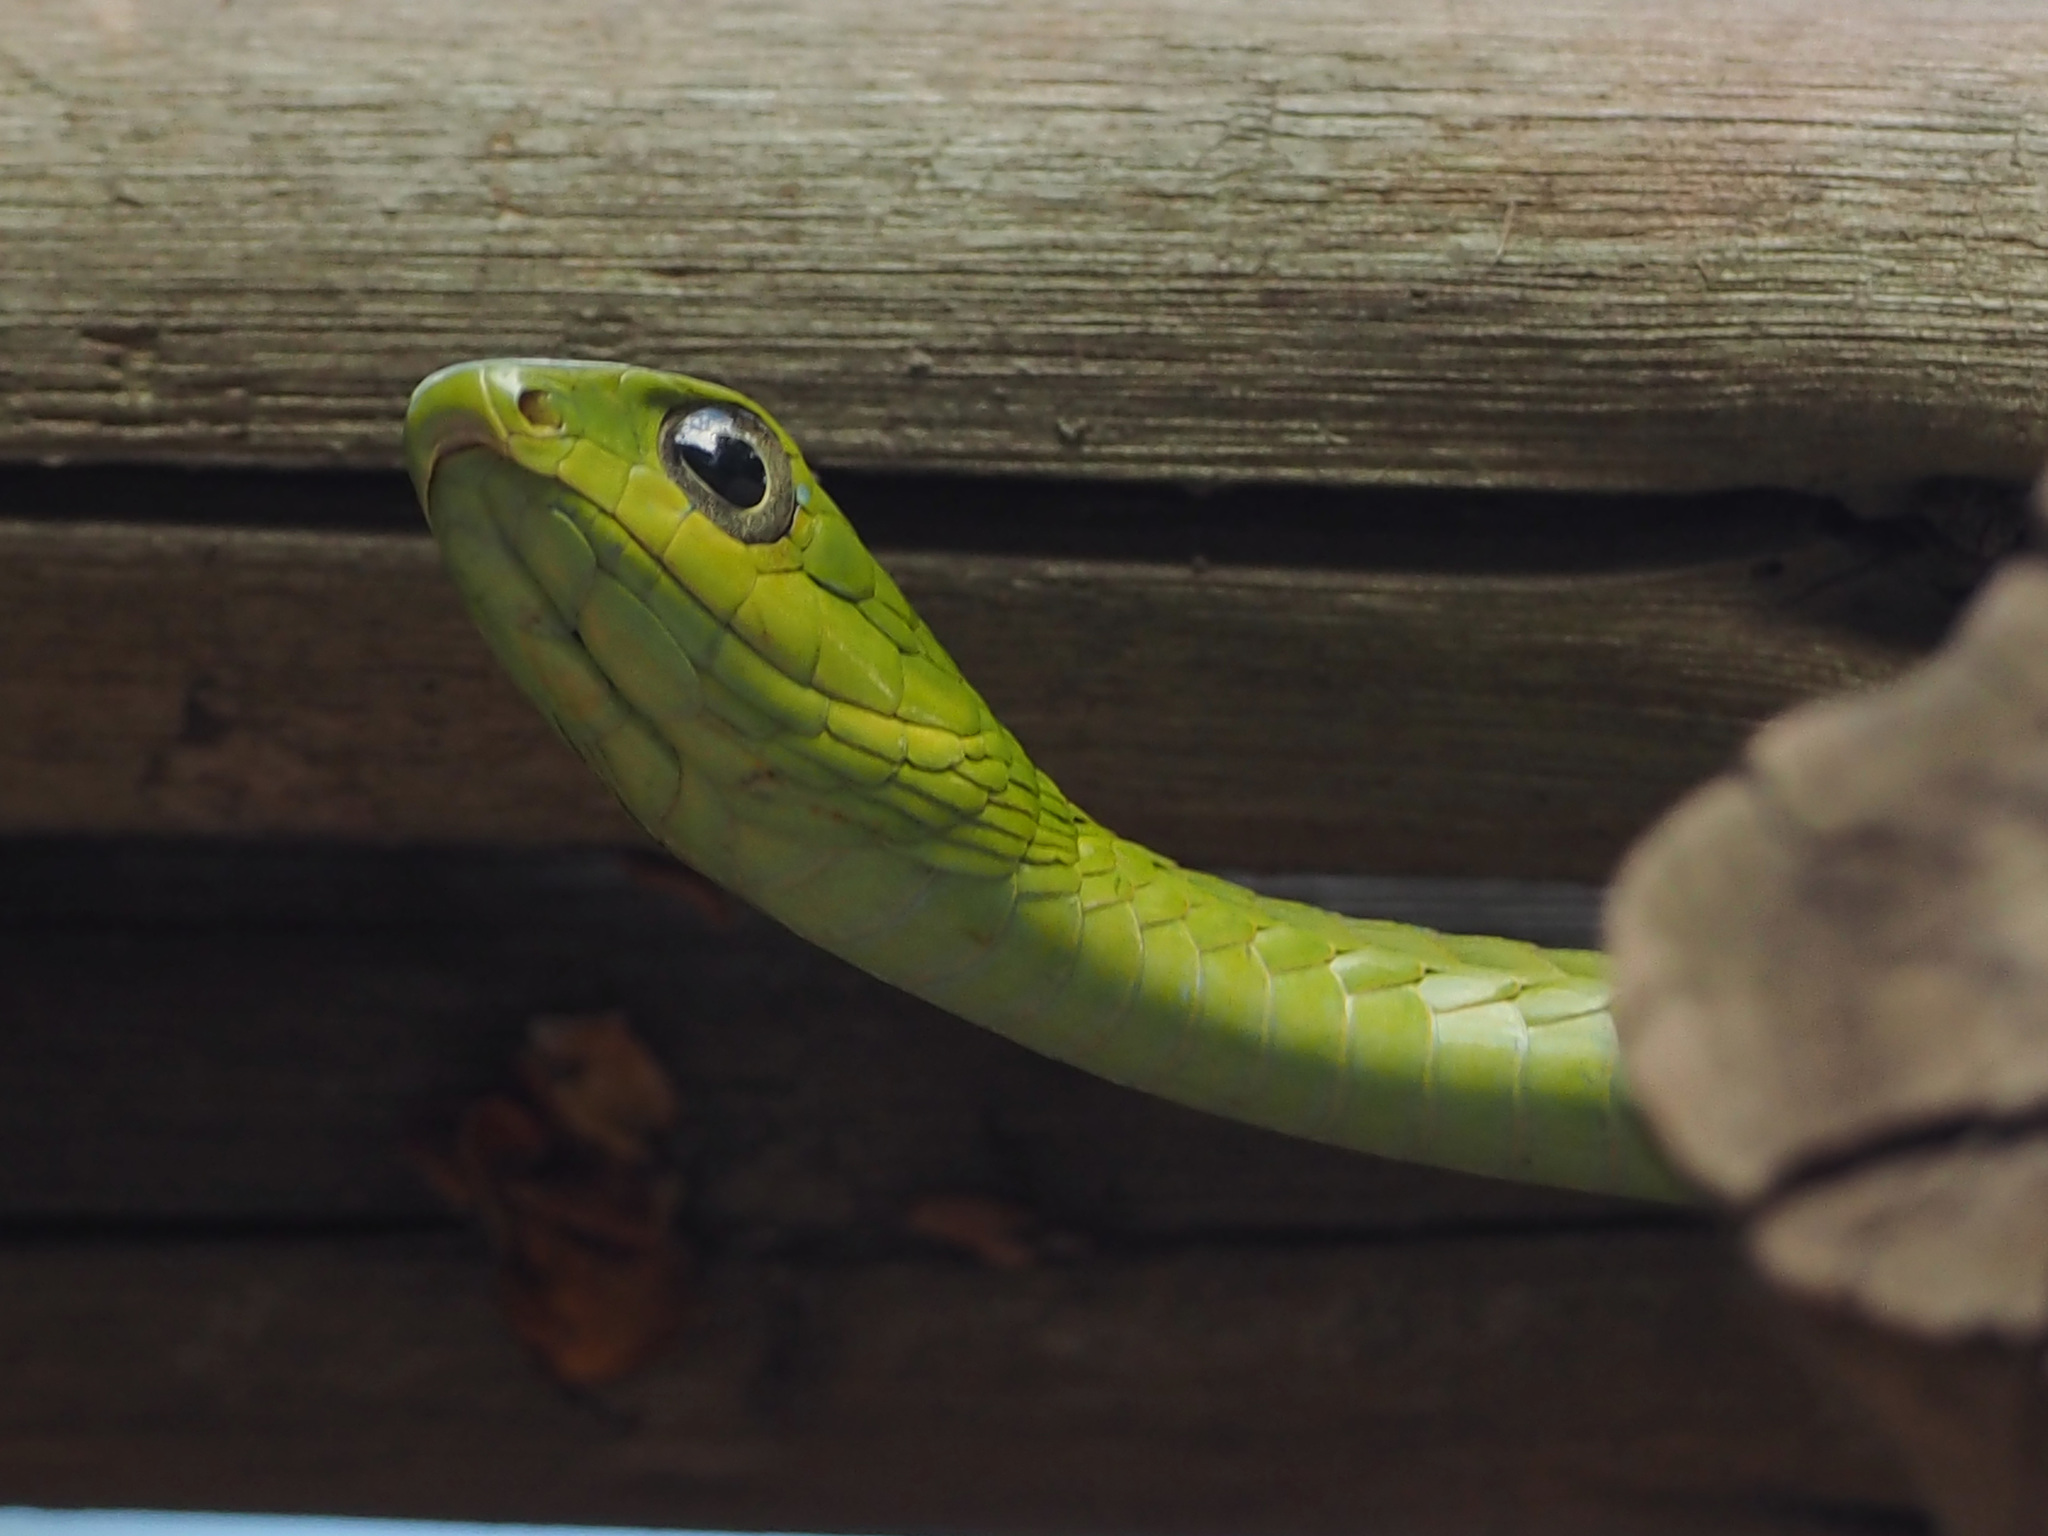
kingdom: Animalia
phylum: Chordata
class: Squamata
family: Colubridae
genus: Dispholidus
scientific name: Dispholidus typus
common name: Boomslang
